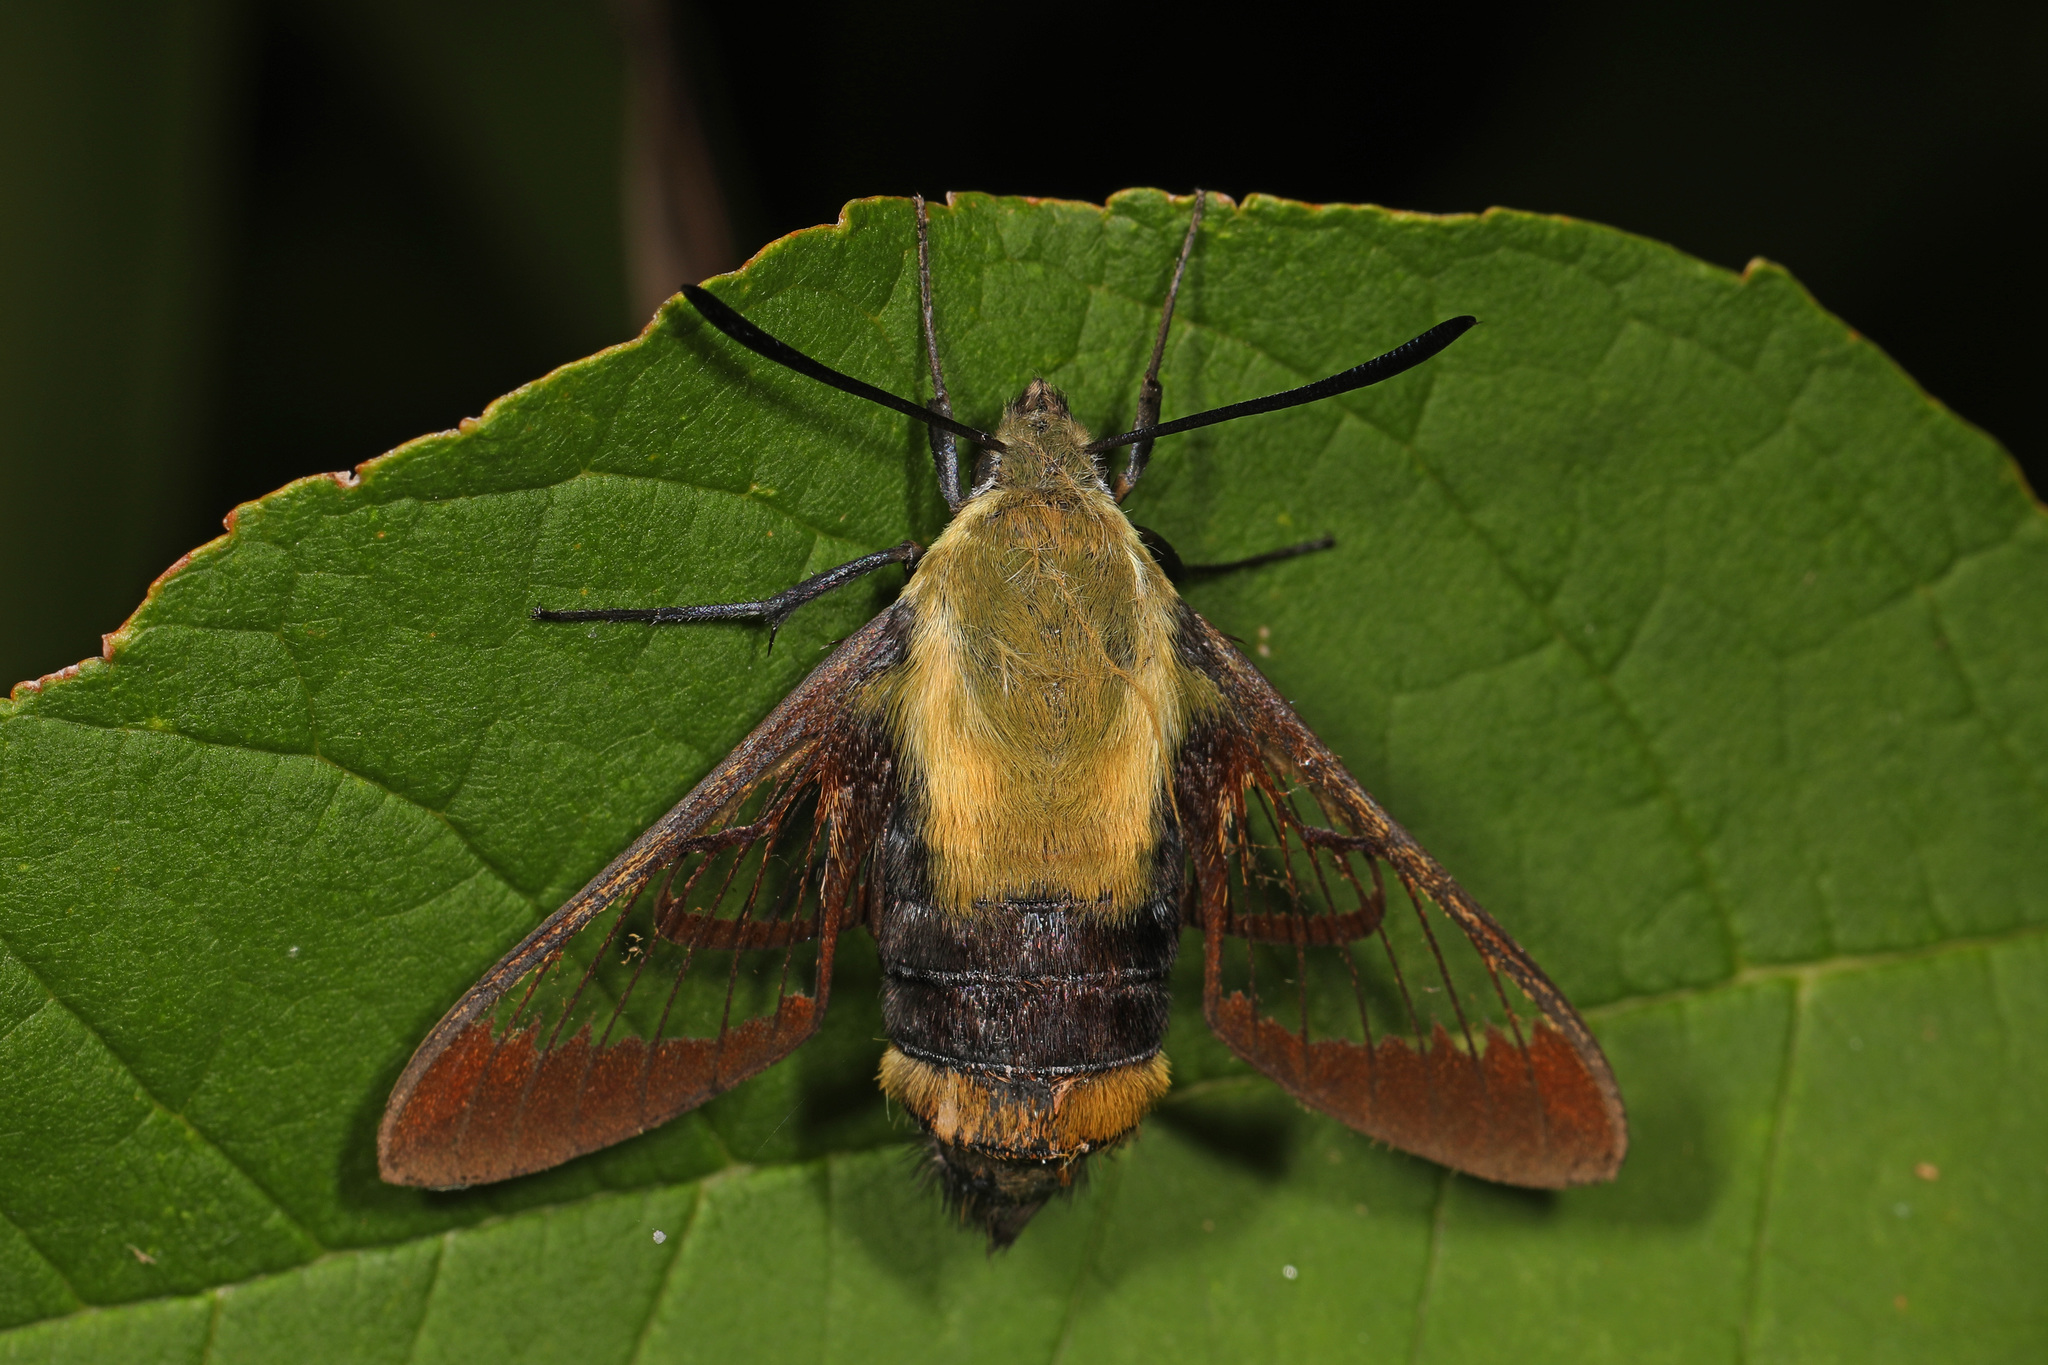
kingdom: Animalia
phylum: Arthropoda
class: Insecta
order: Lepidoptera
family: Sphingidae
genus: Hemaris
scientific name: Hemaris diffinis
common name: Bumblebee moth
